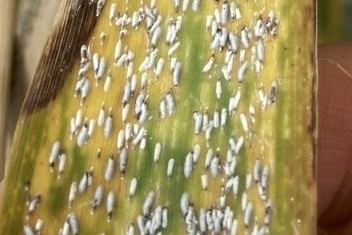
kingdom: Animalia
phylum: Arthropoda
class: Insecta
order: Hemiptera
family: Diaspididae
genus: Leucaspis
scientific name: Leucaspis cordylinidis
